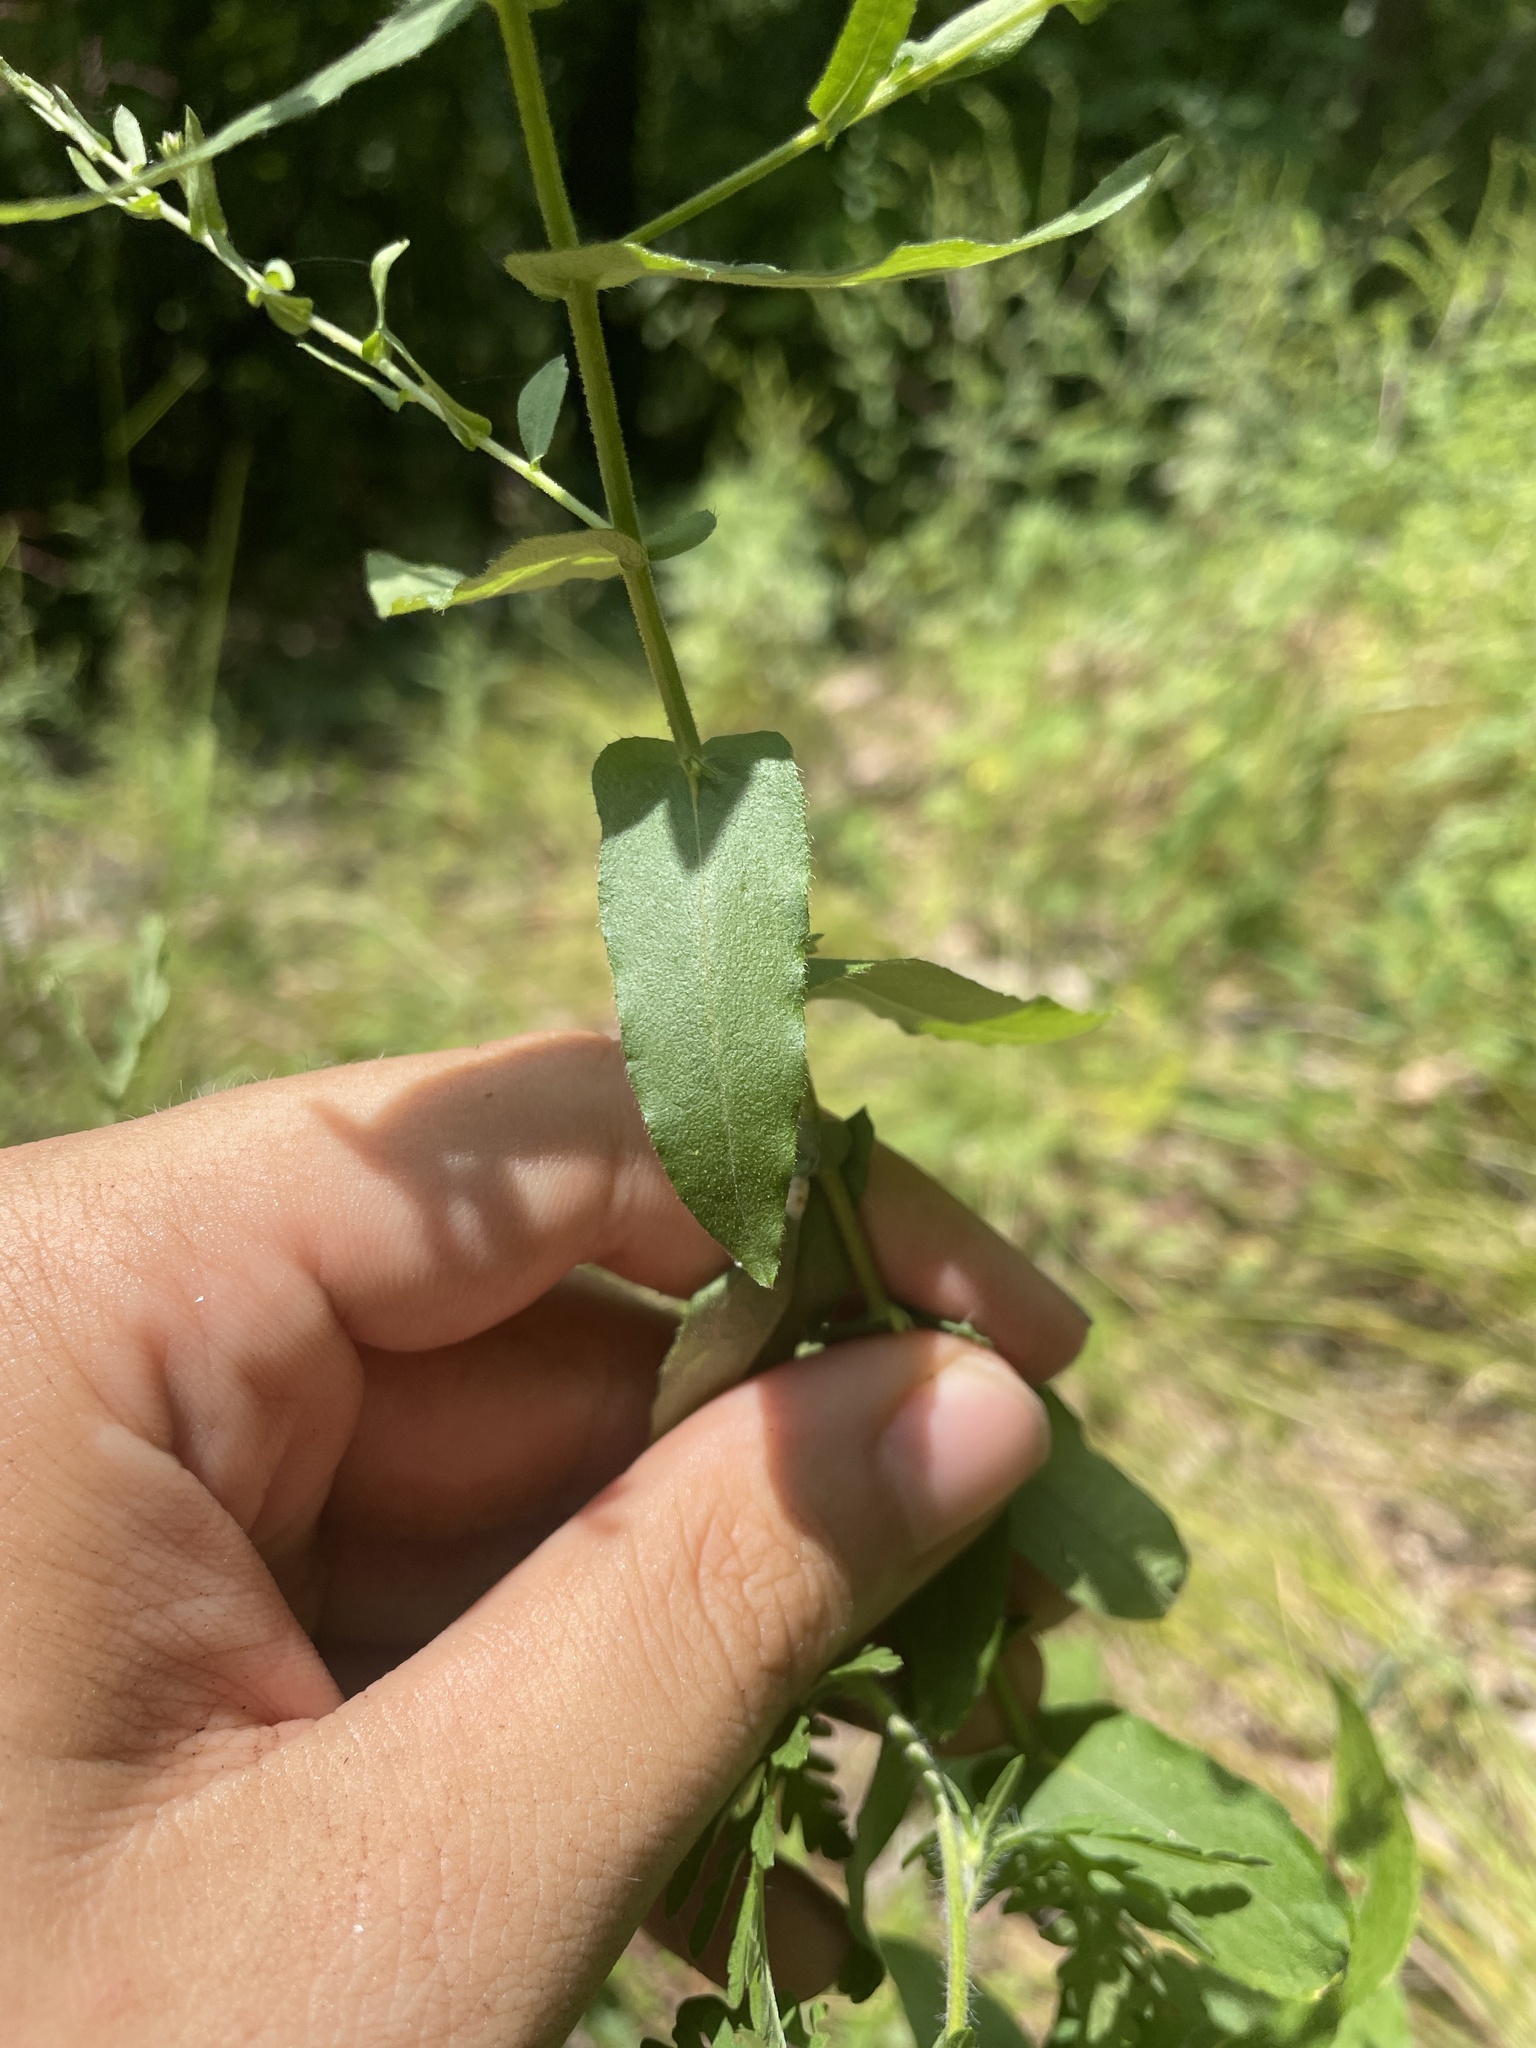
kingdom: Plantae
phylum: Tracheophyta
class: Magnoliopsida
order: Asterales
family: Asteraceae
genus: Symphyotrichum
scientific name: Symphyotrichum patens
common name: Late purple aster
